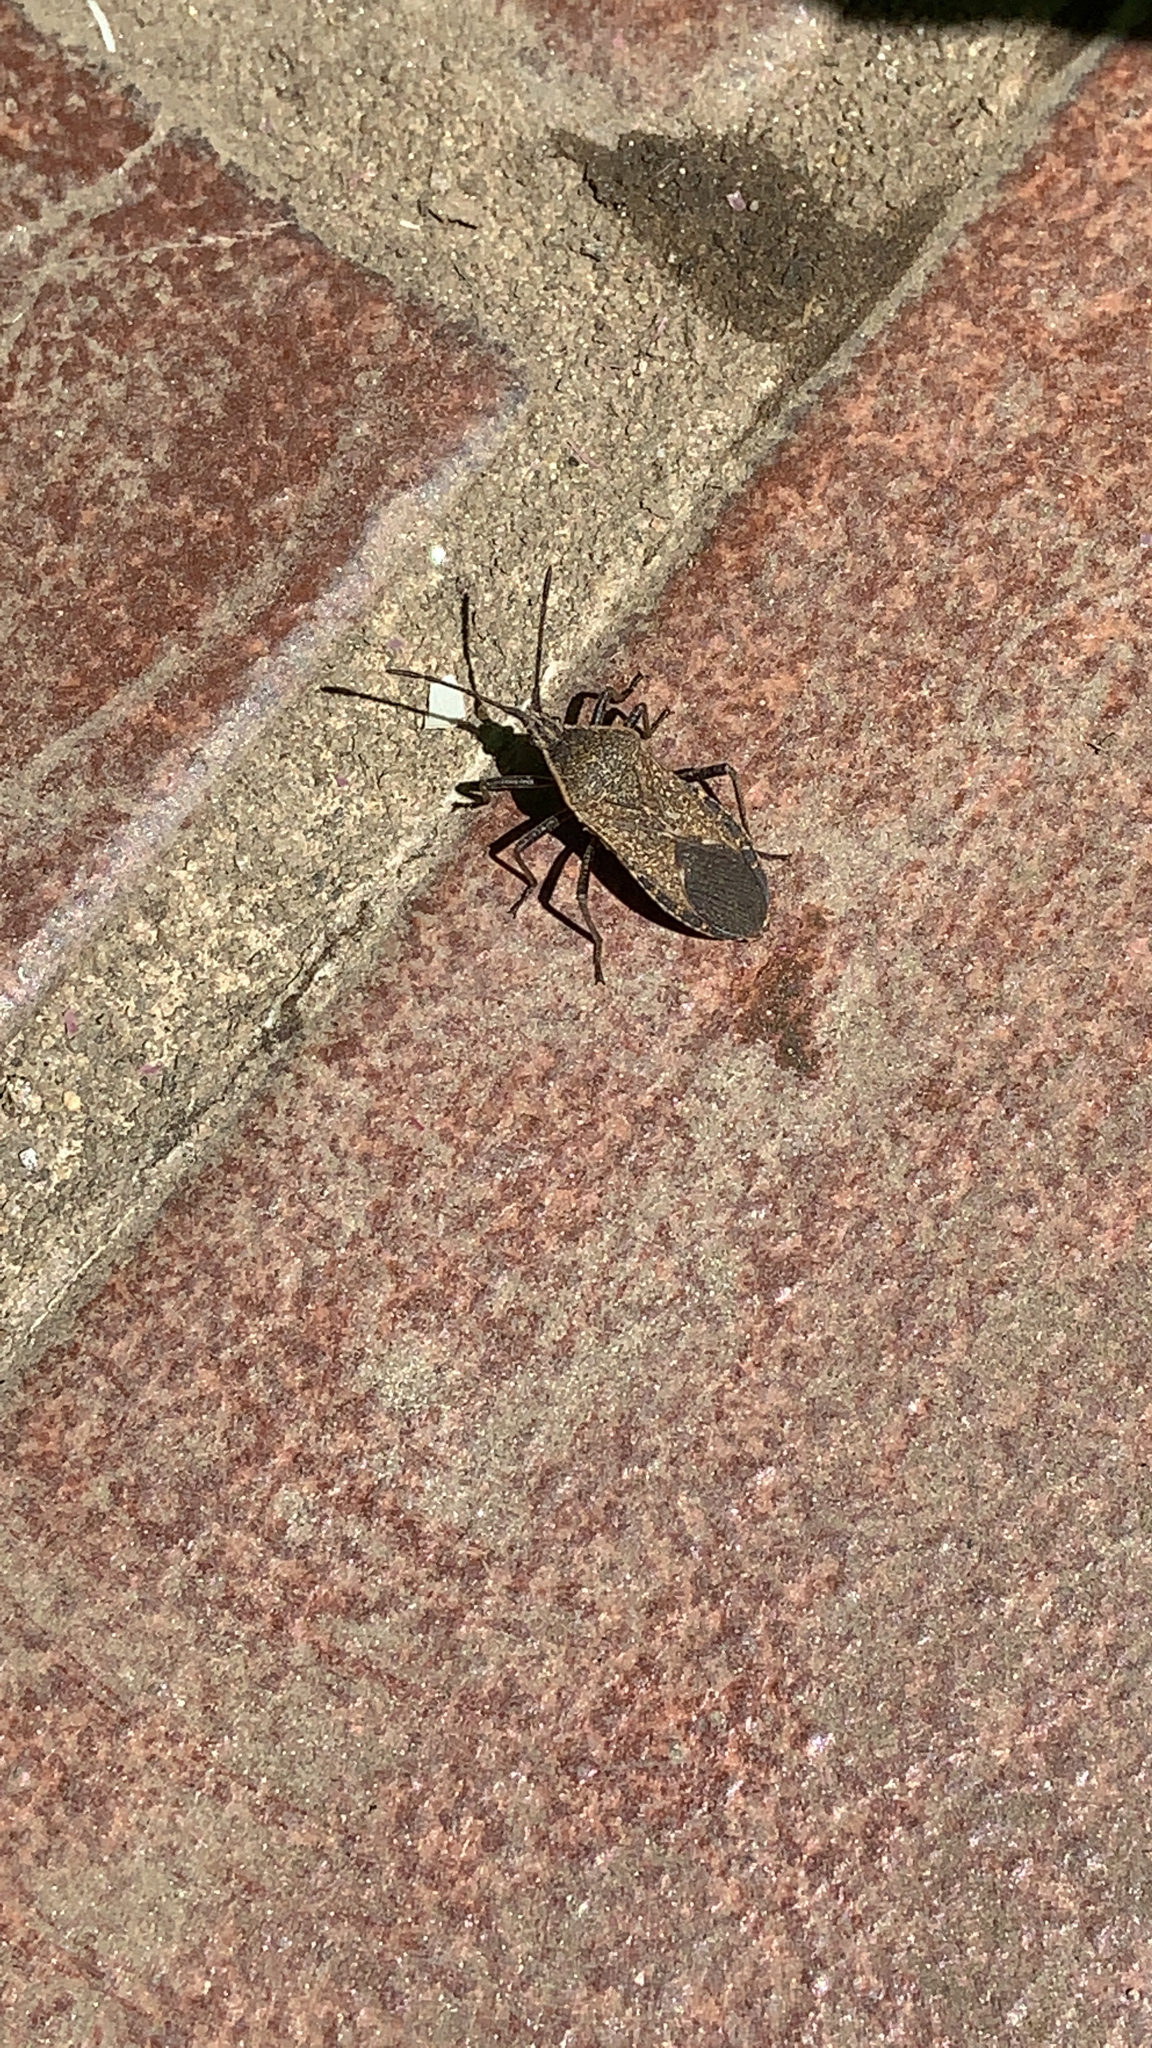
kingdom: Animalia
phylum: Arthropoda
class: Insecta
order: Hemiptera
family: Coreidae
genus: Anasa
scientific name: Anasa tristis
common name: Squash bug
